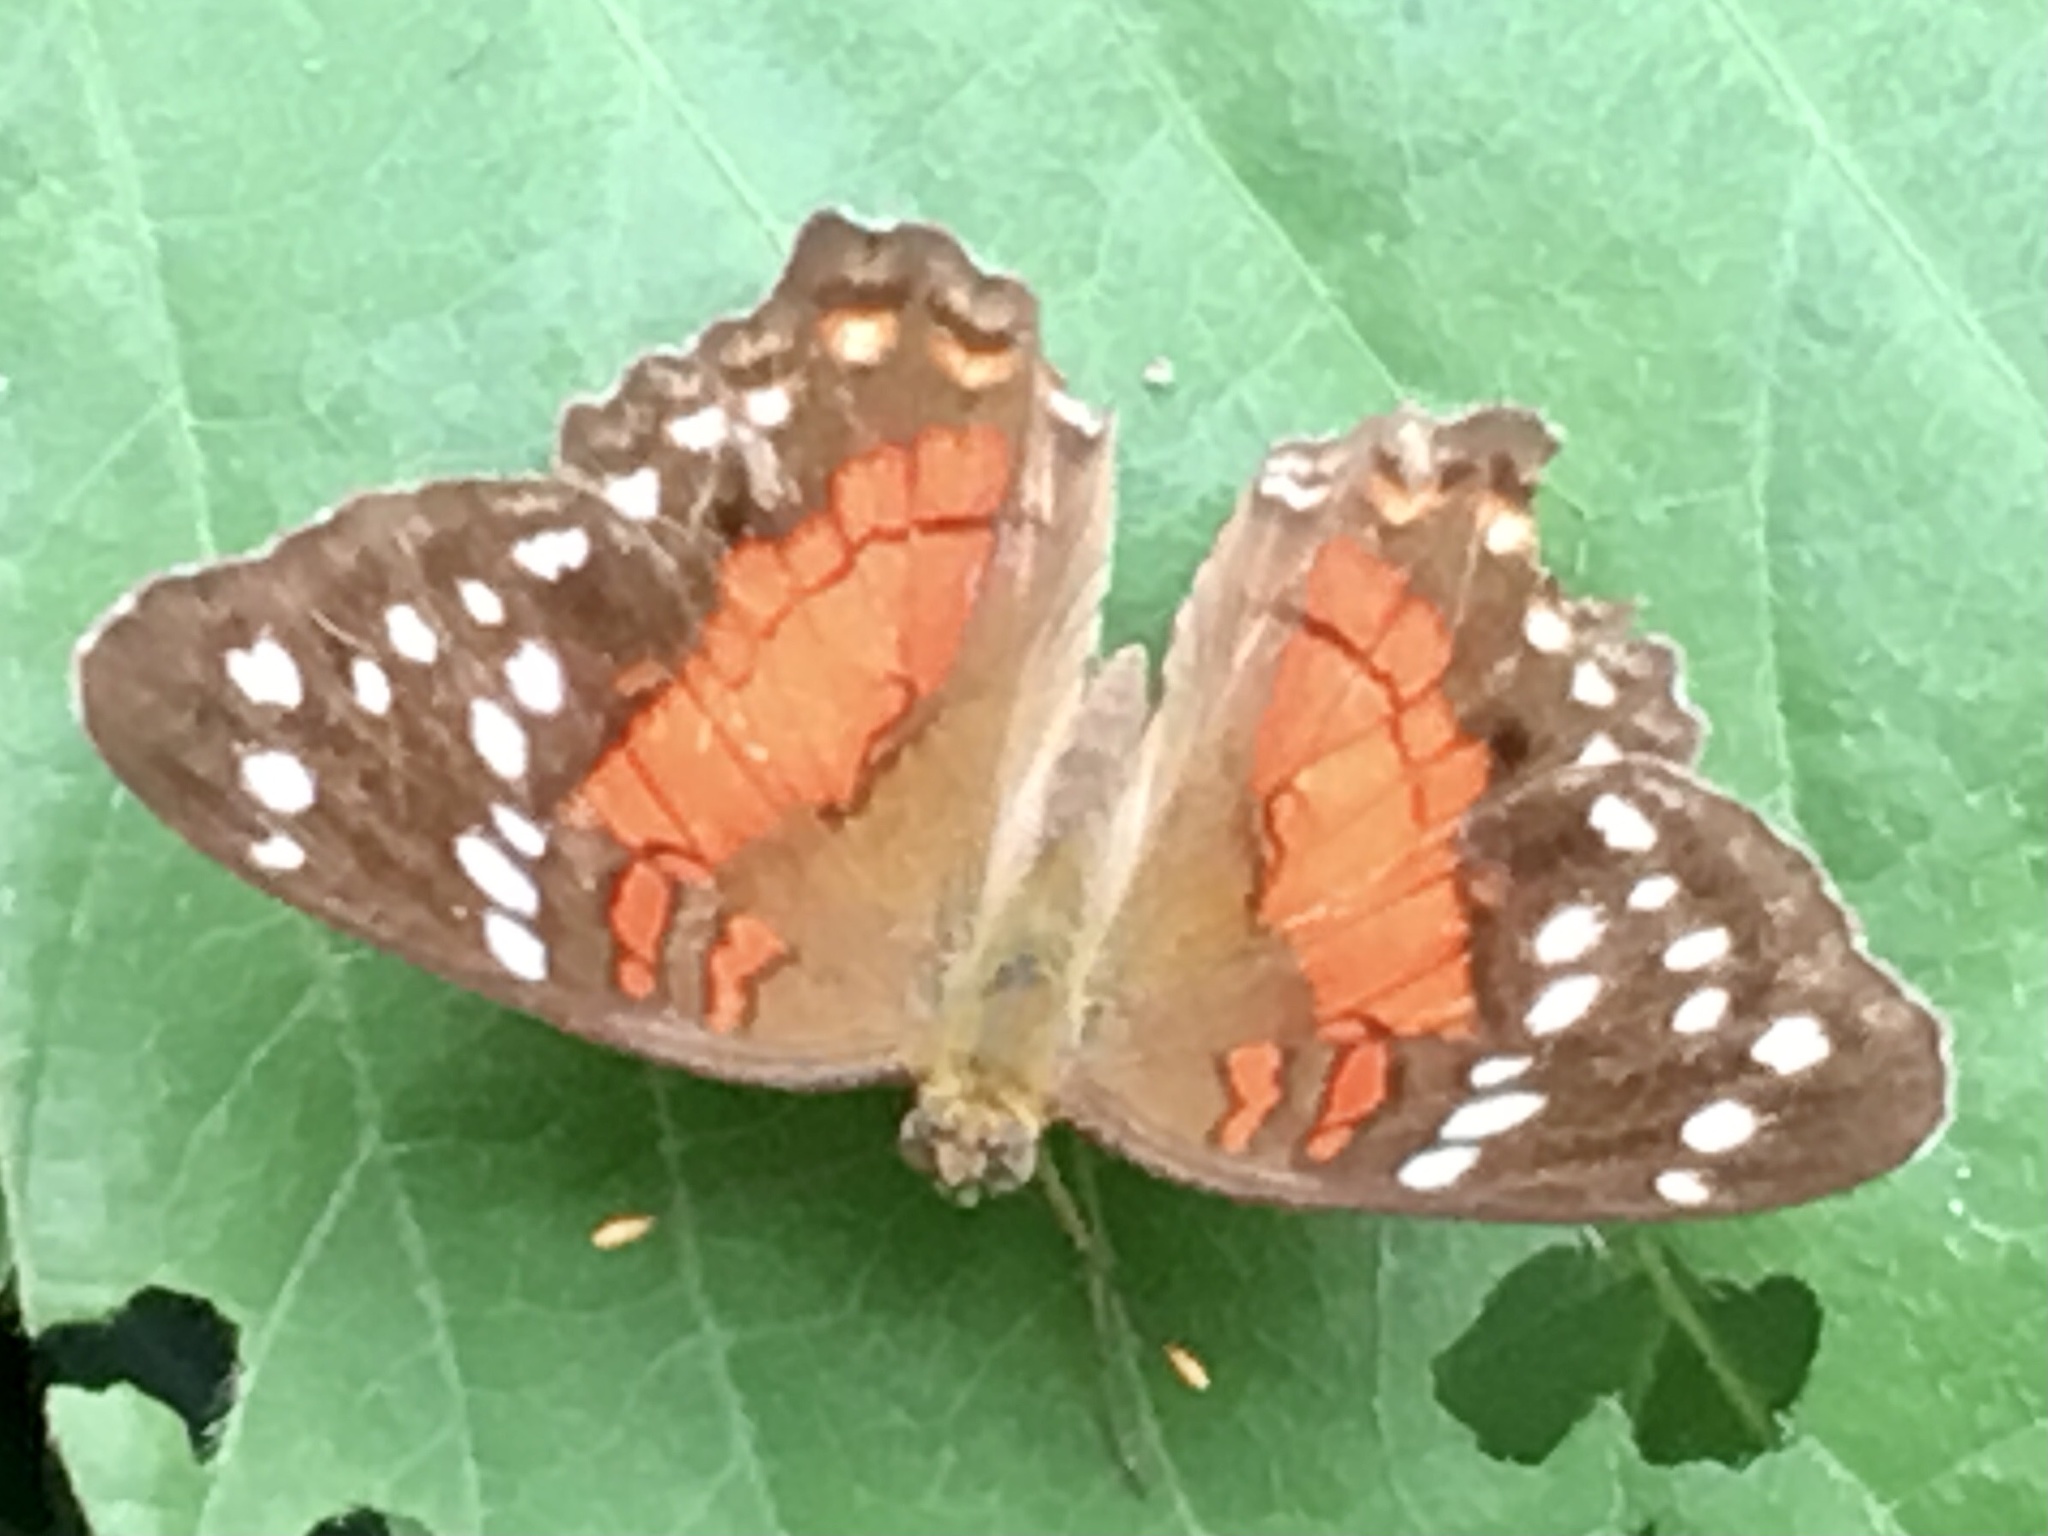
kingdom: Animalia
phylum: Arthropoda
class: Insecta
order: Lepidoptera
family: Nymphalidae
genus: Anartia
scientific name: Anartia amathea
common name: Red peacock
